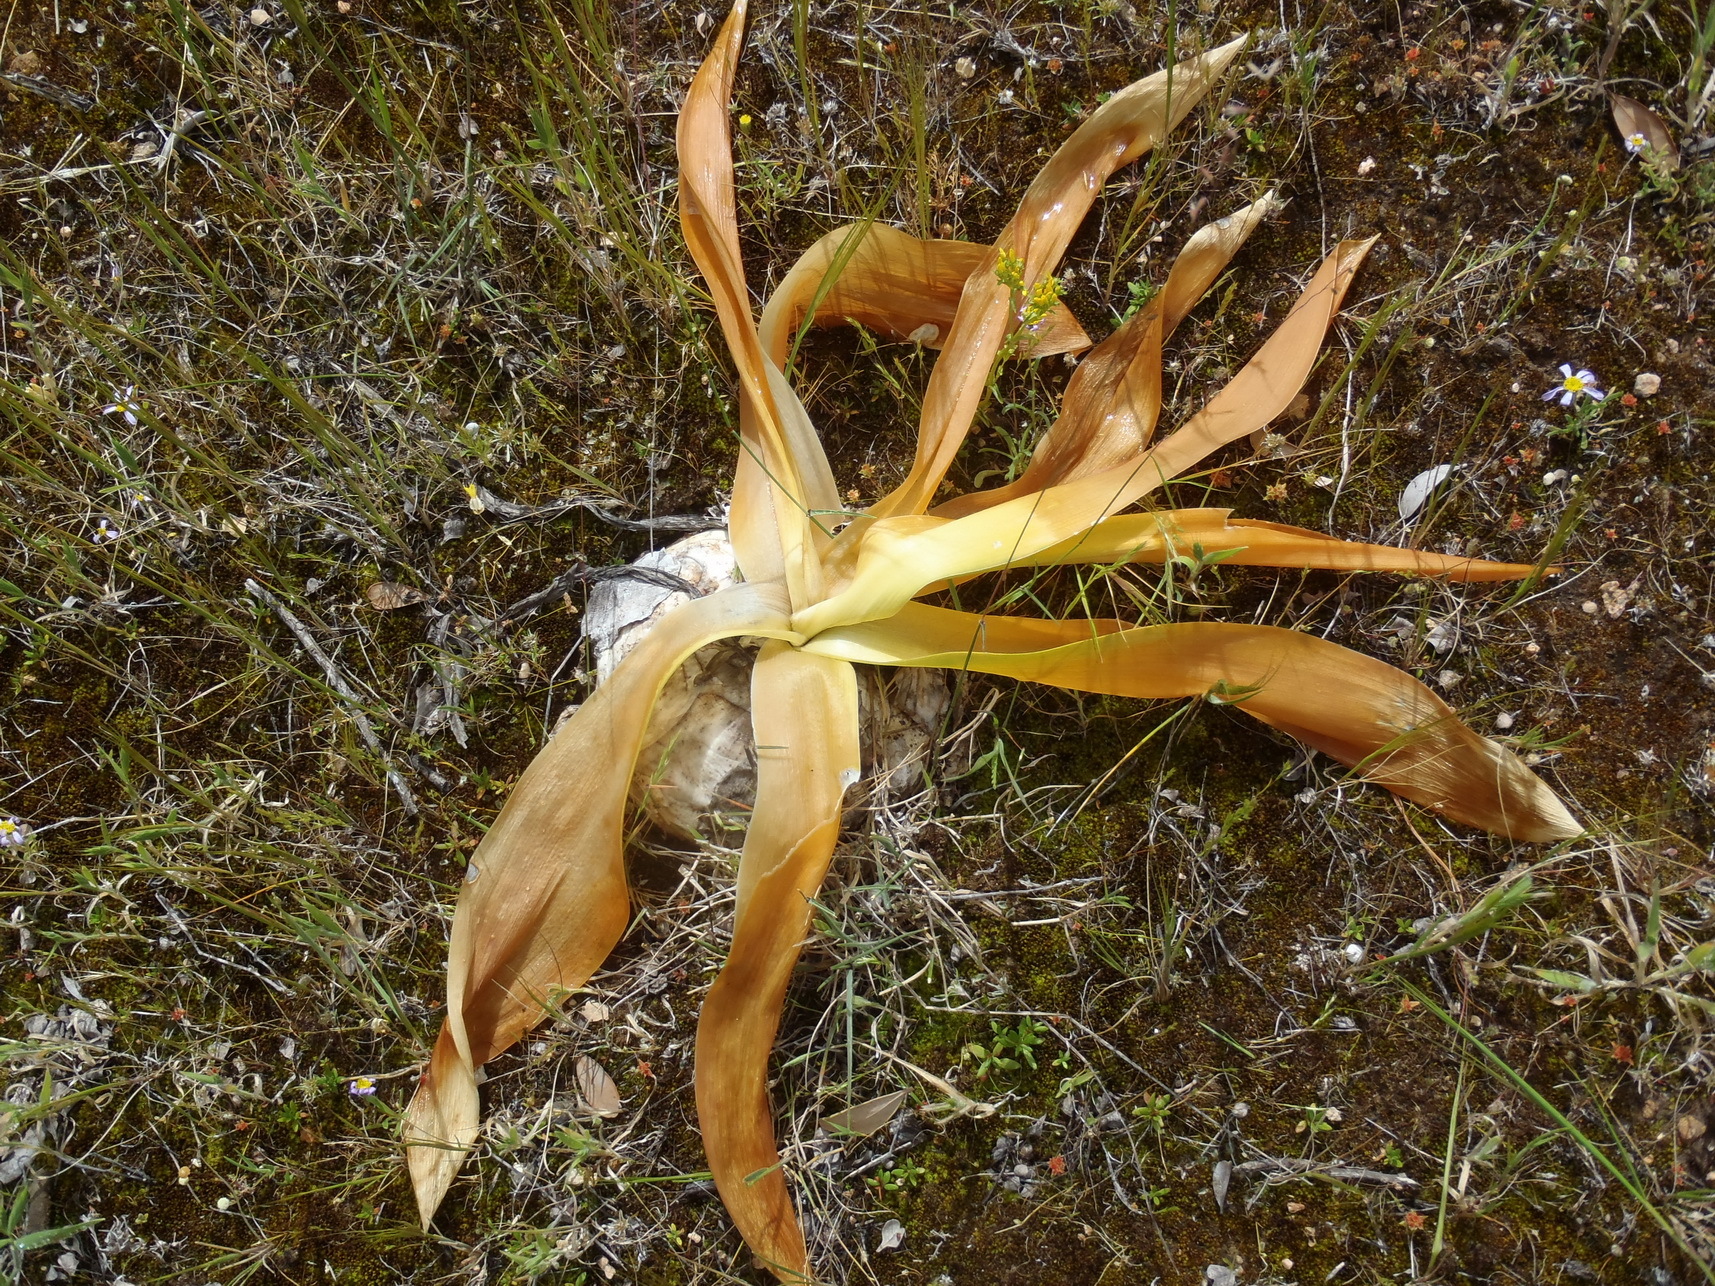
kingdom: Plantae
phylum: Tracheophyta
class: Liliopsida
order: Asparagales
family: Asparagaceae
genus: Drimia
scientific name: Drimia capensis
